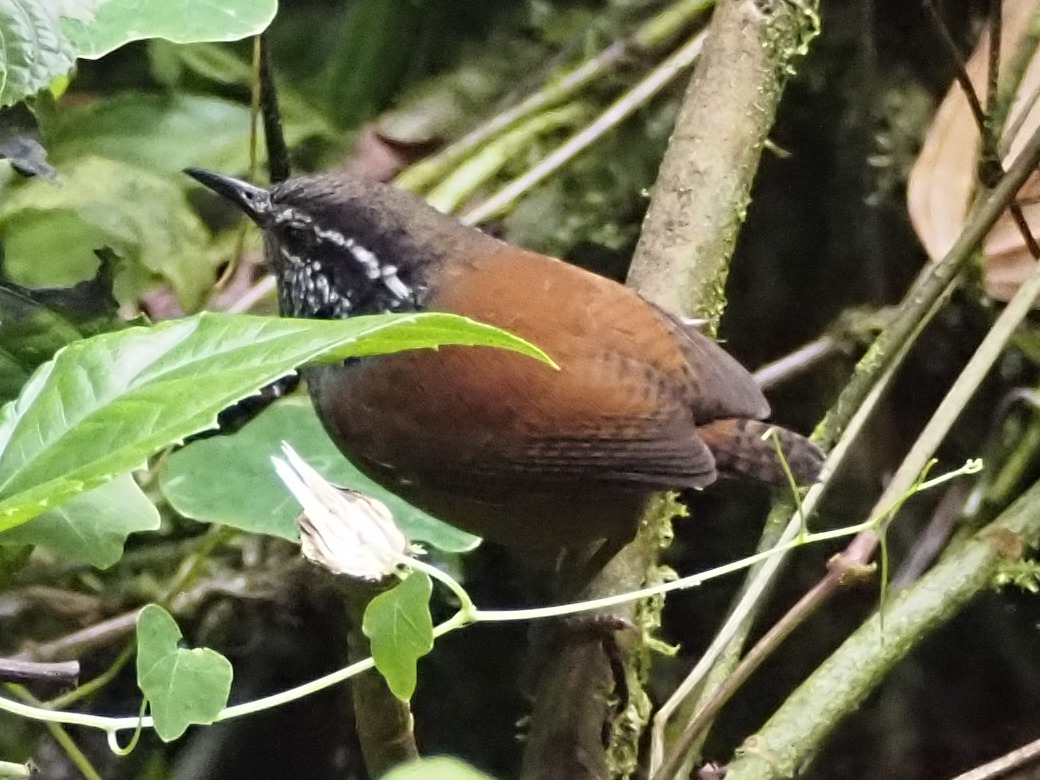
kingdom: Animalia
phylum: Chordata
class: Aves
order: Passeriformes
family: Troglodytidae
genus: Henicorhina
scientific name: Henicorhina leucophrys
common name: Gray-breasted wood-wren
